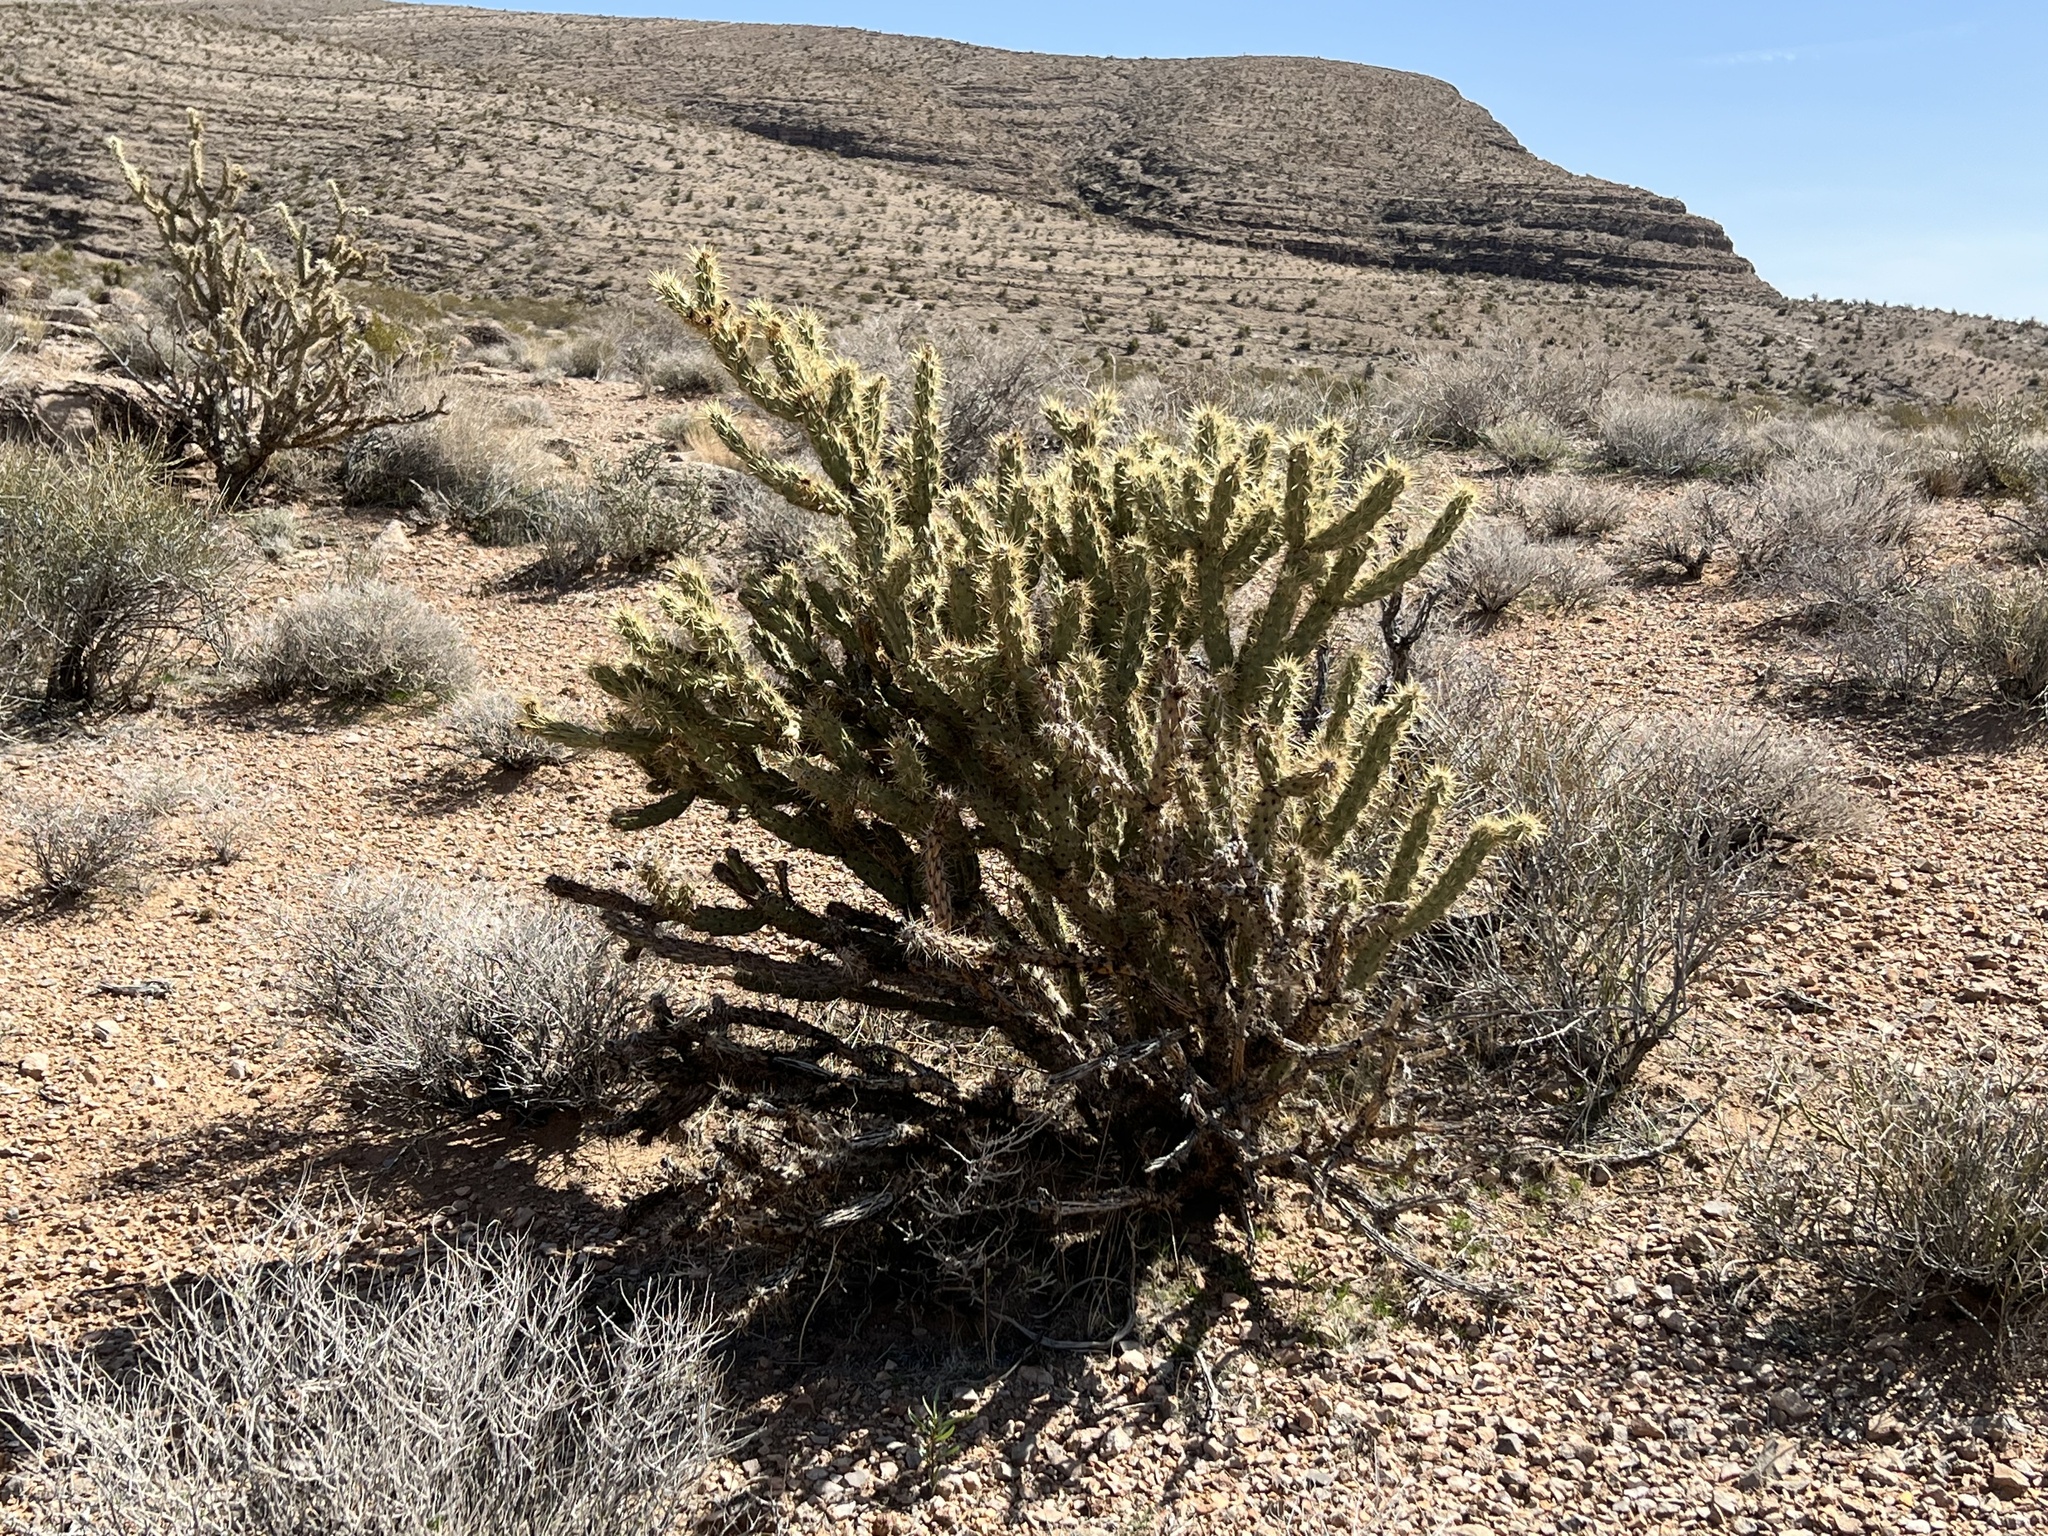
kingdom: Plantae
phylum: Tracheophyta
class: Magnoliopsida
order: Caryophyllales
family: Cactaceae
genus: Cylindropuntia
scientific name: Cylindropuntia acanthocarpa
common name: Buckhorn cholla
